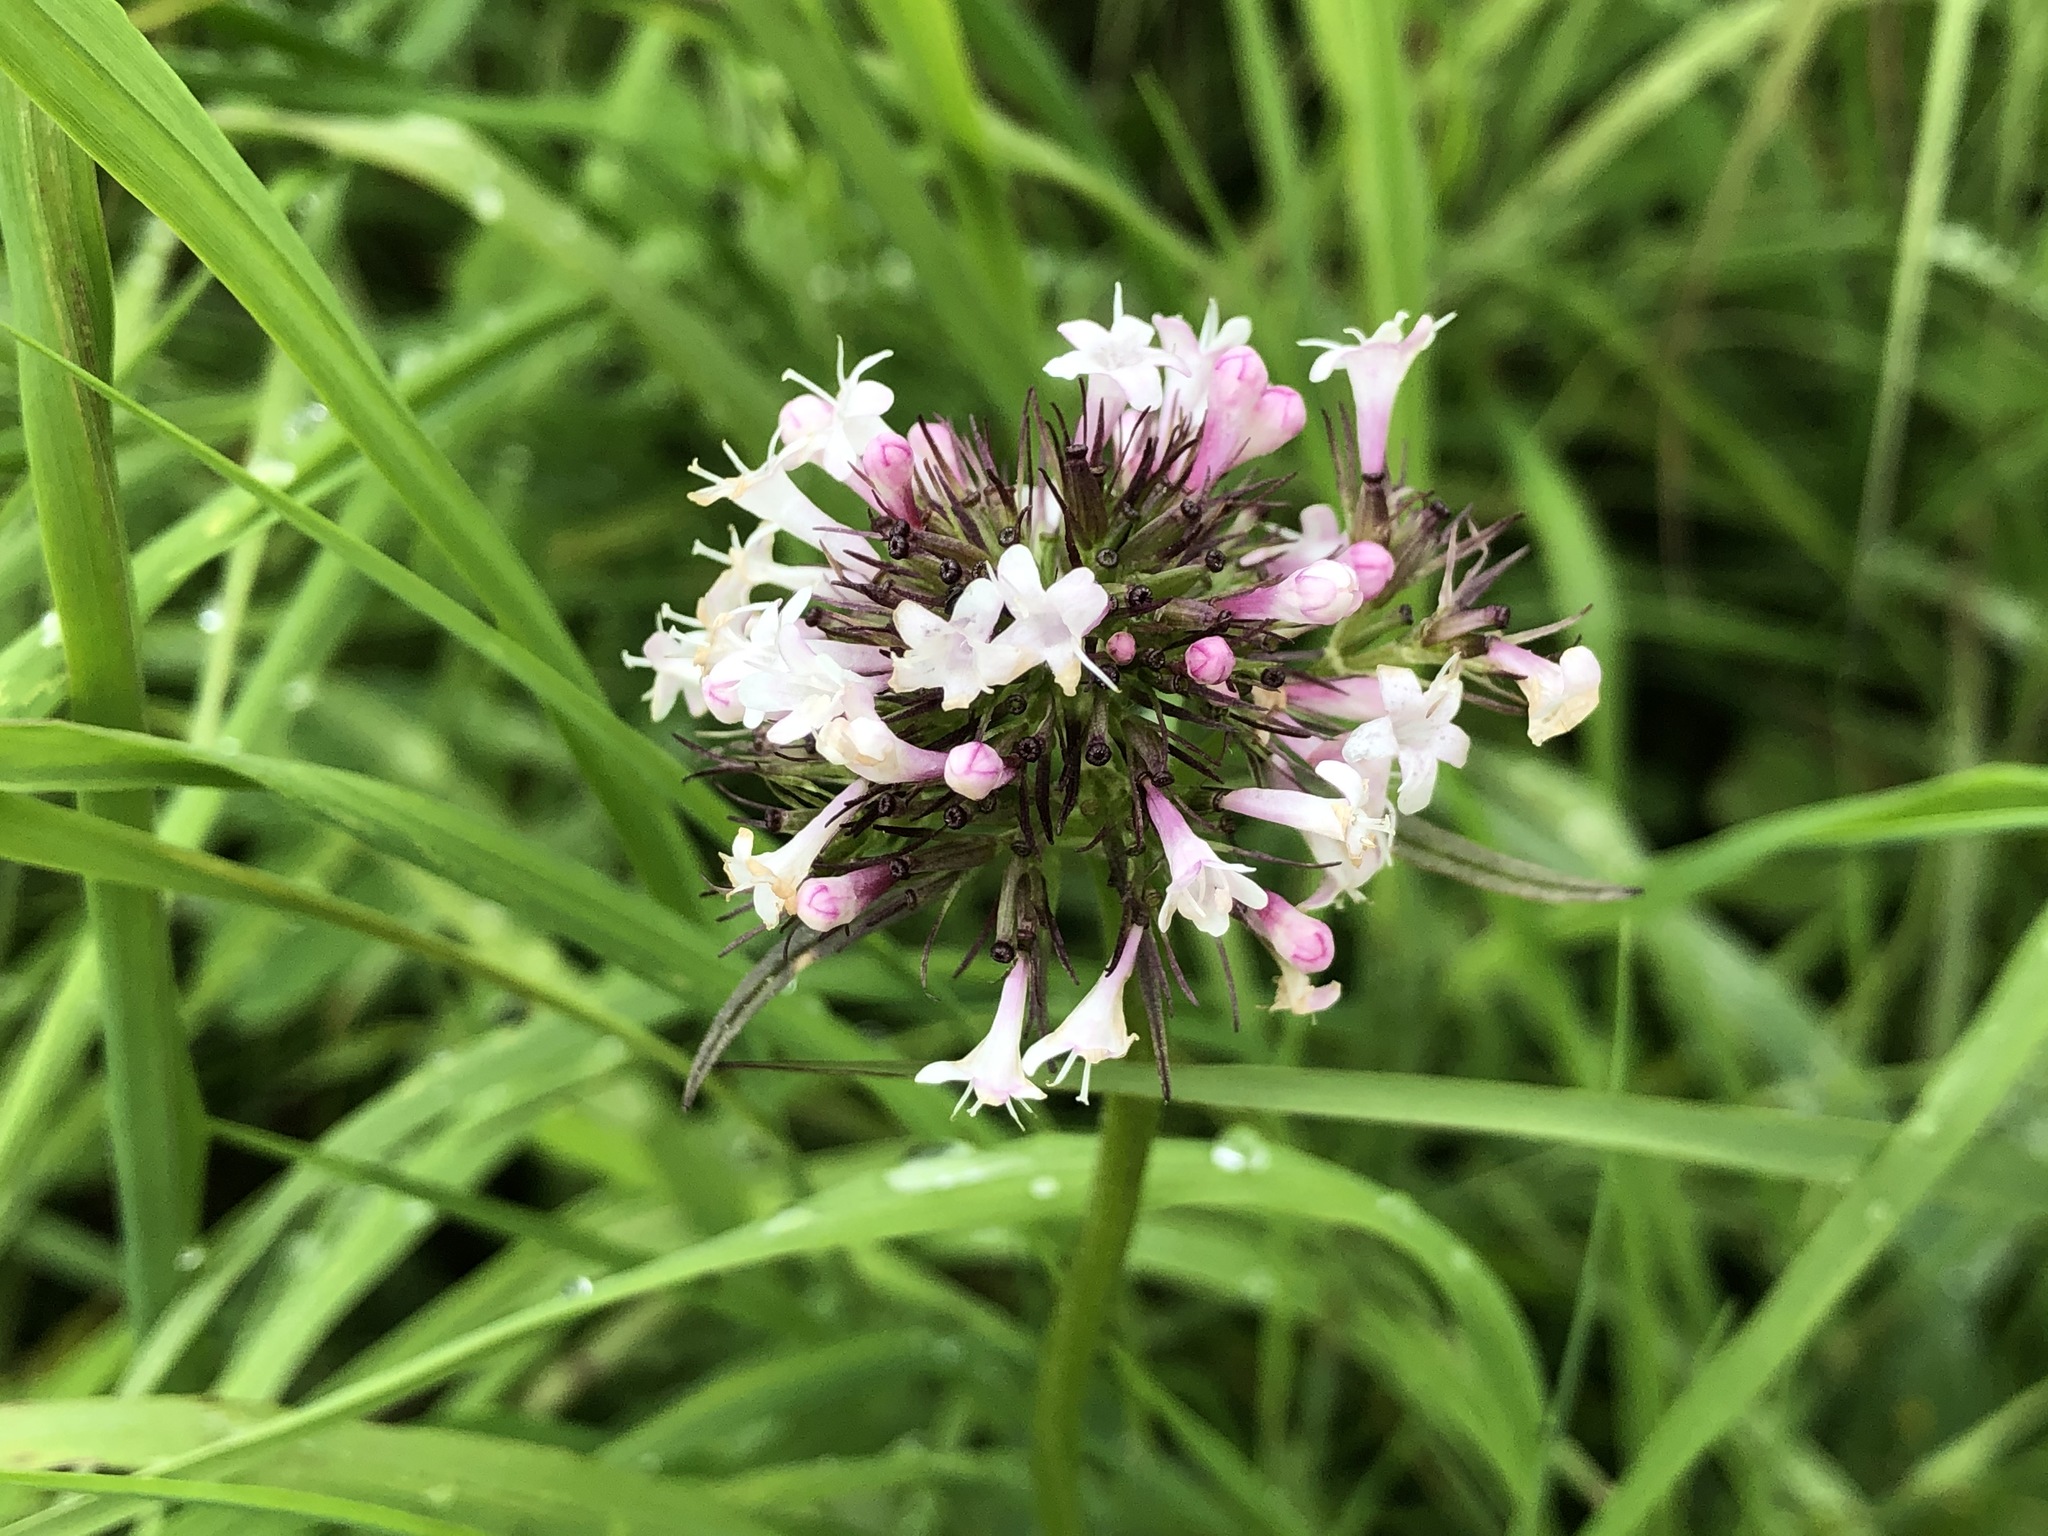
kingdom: Plantae
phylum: Tracheophyta
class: Magnoliopsida
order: Dipsacales
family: Caprifoliaceae
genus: Valeriana
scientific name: Valeriana capitata
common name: Capitate valerian
